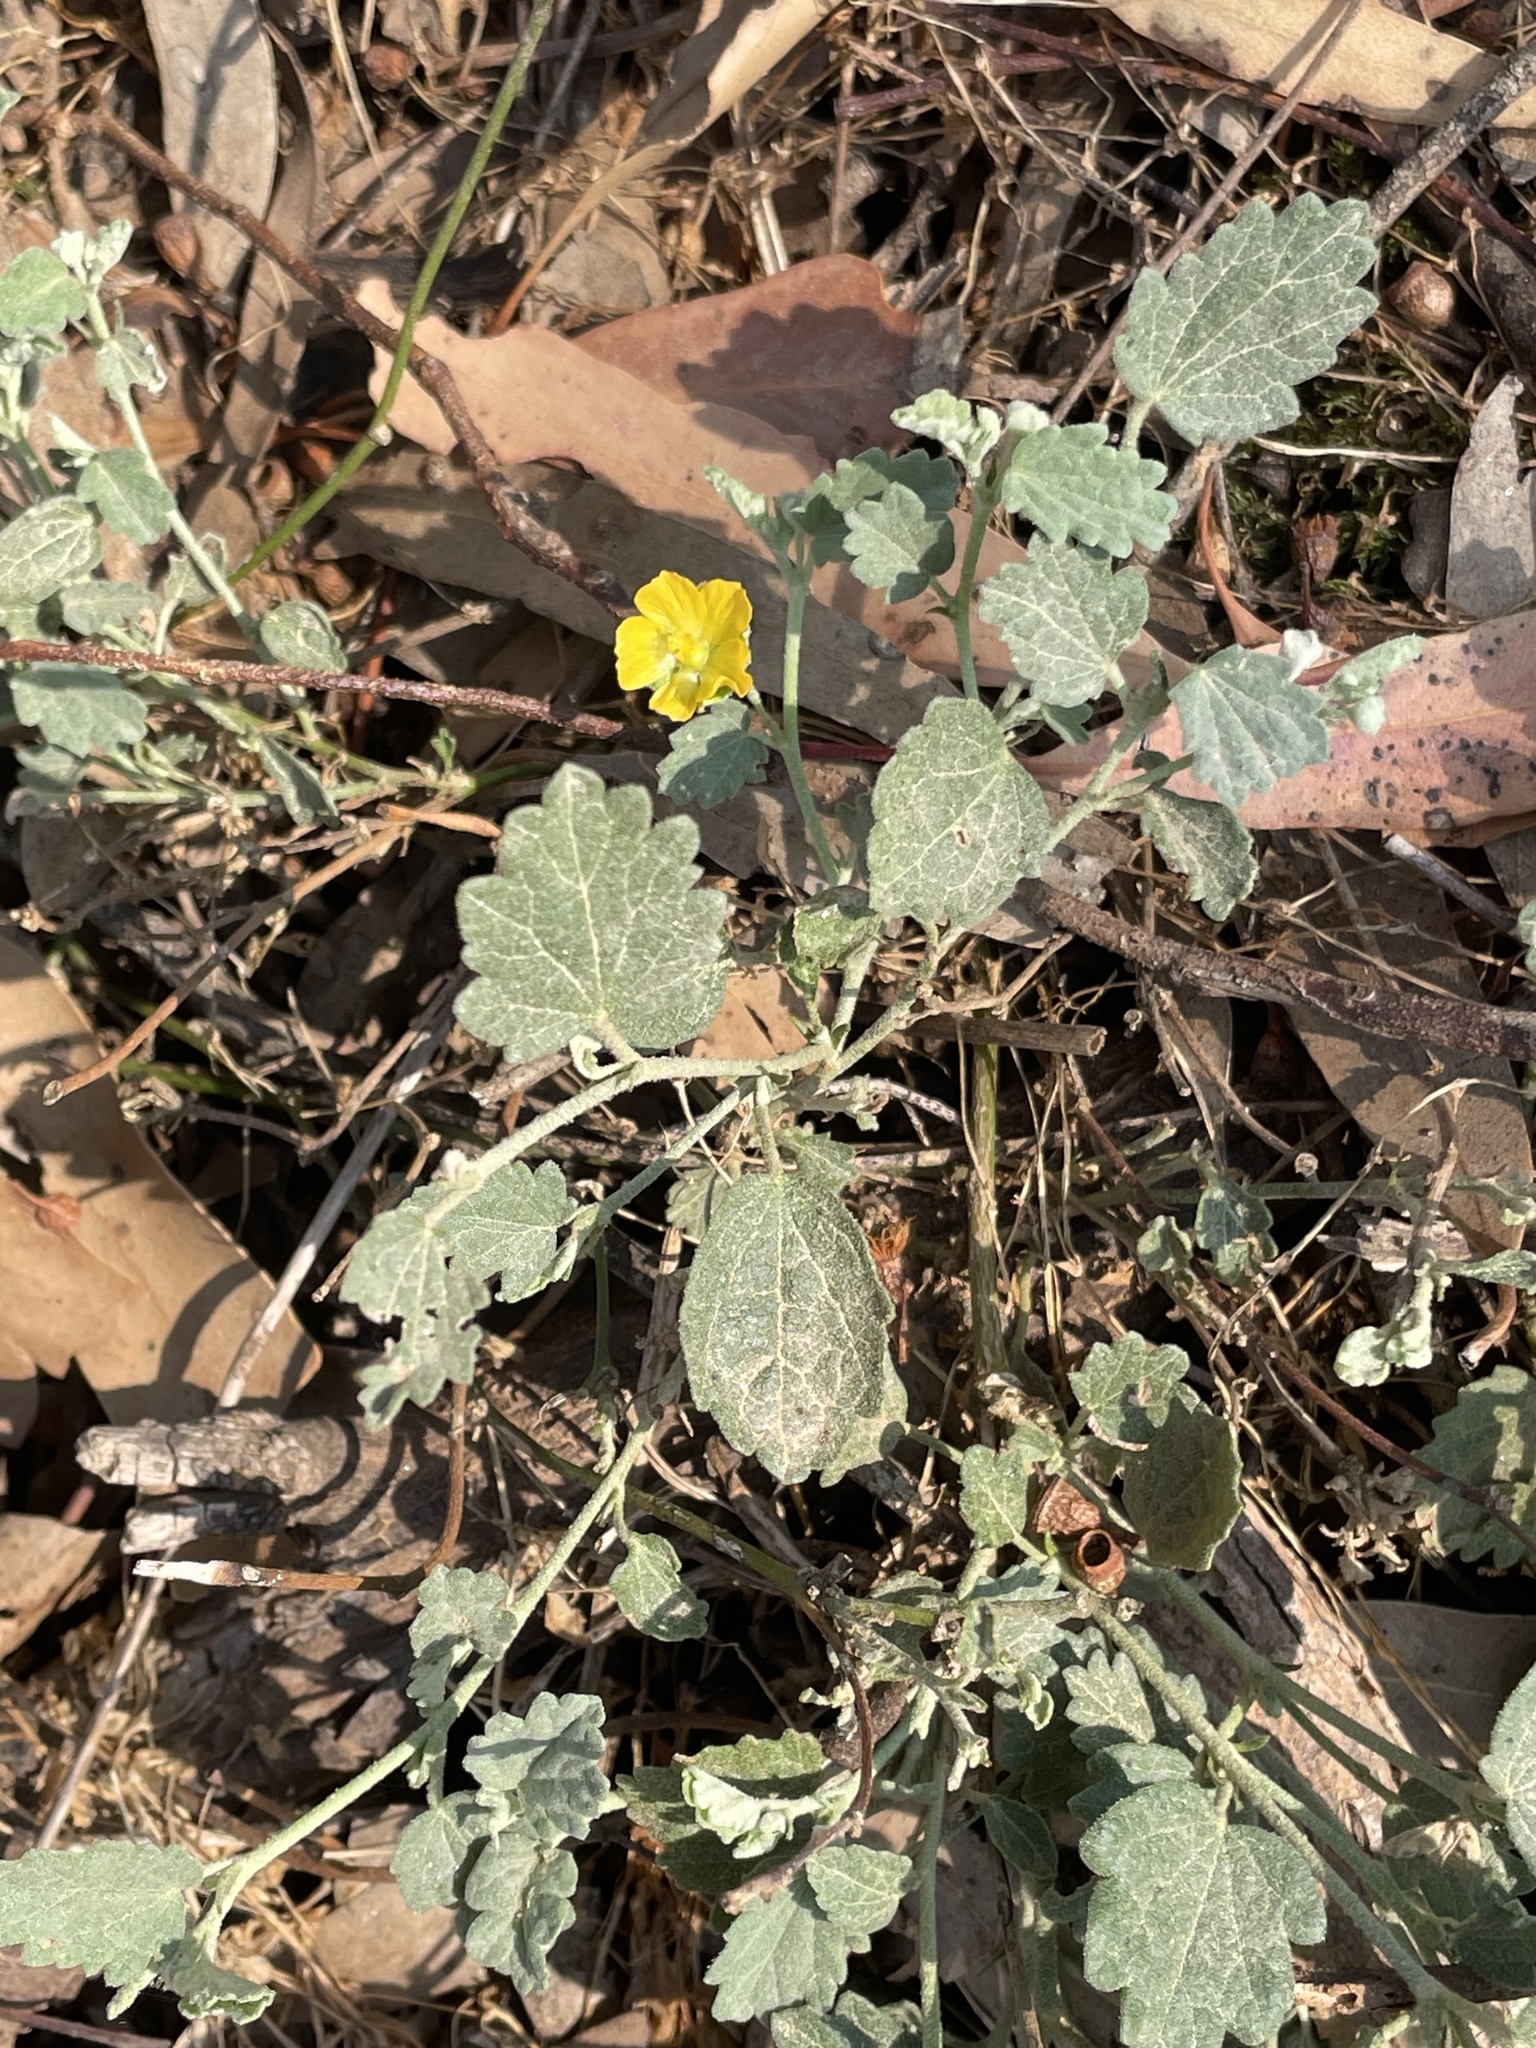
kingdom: Plantae
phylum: Tracheophyta
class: Magnoliopsida
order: Malvales
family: Malvaceae
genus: Sida
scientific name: Sida corrugata
